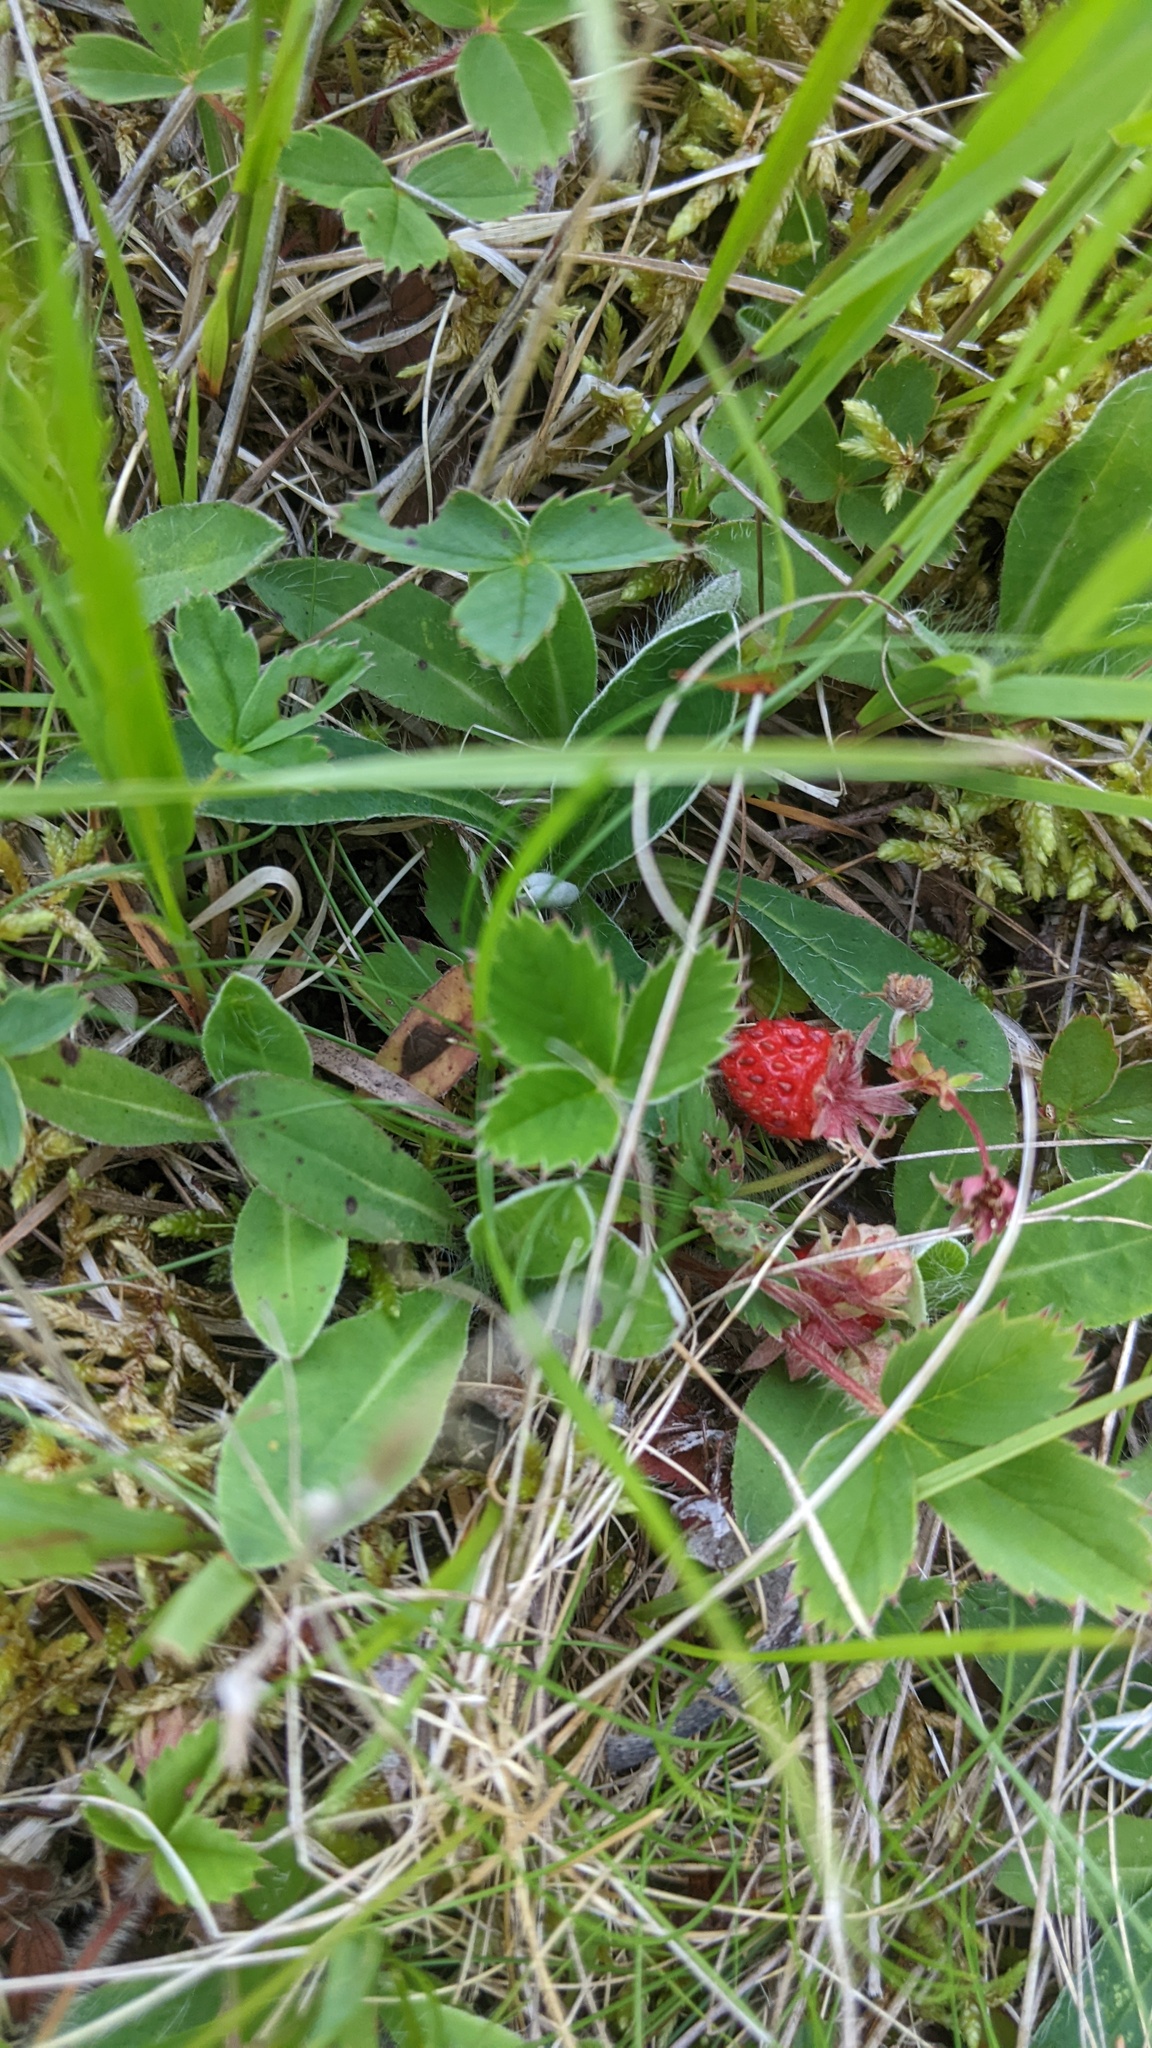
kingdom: Plantae
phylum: Tracheophyta
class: Magnoliopsida
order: Rosales
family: Rosaceae
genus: Fragaria
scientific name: Fragaria virginiana
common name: Thickleaved wild strawberry
